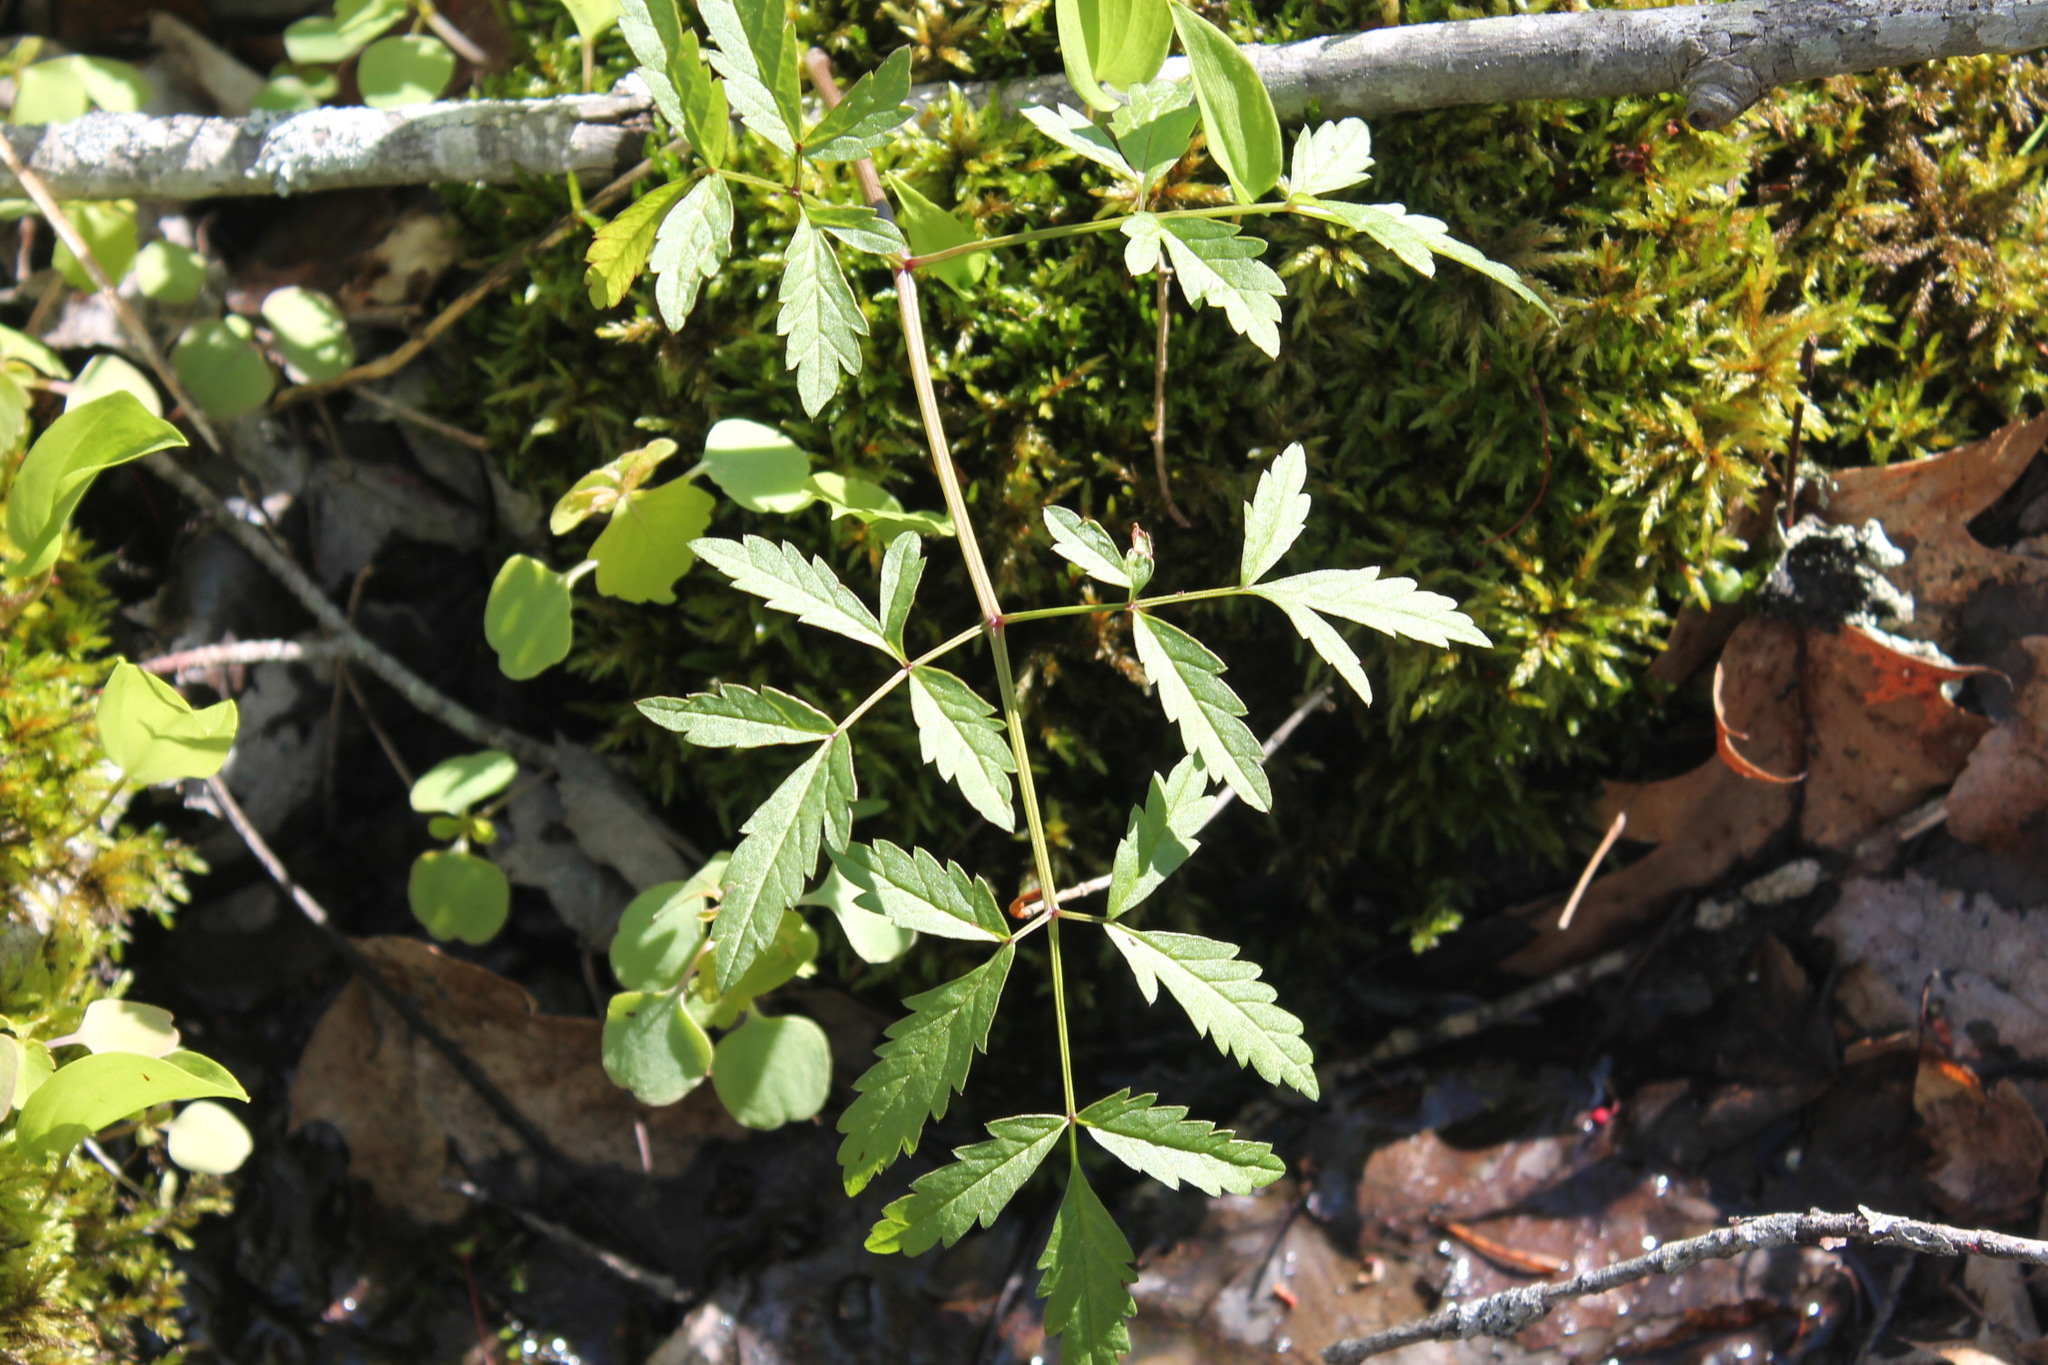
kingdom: Plantae
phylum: Tracheophyta
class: Magnoliopsida
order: Apiales
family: Apiaceae
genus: Cicuta
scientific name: Cicuta maculata
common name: Spotted cowbane
